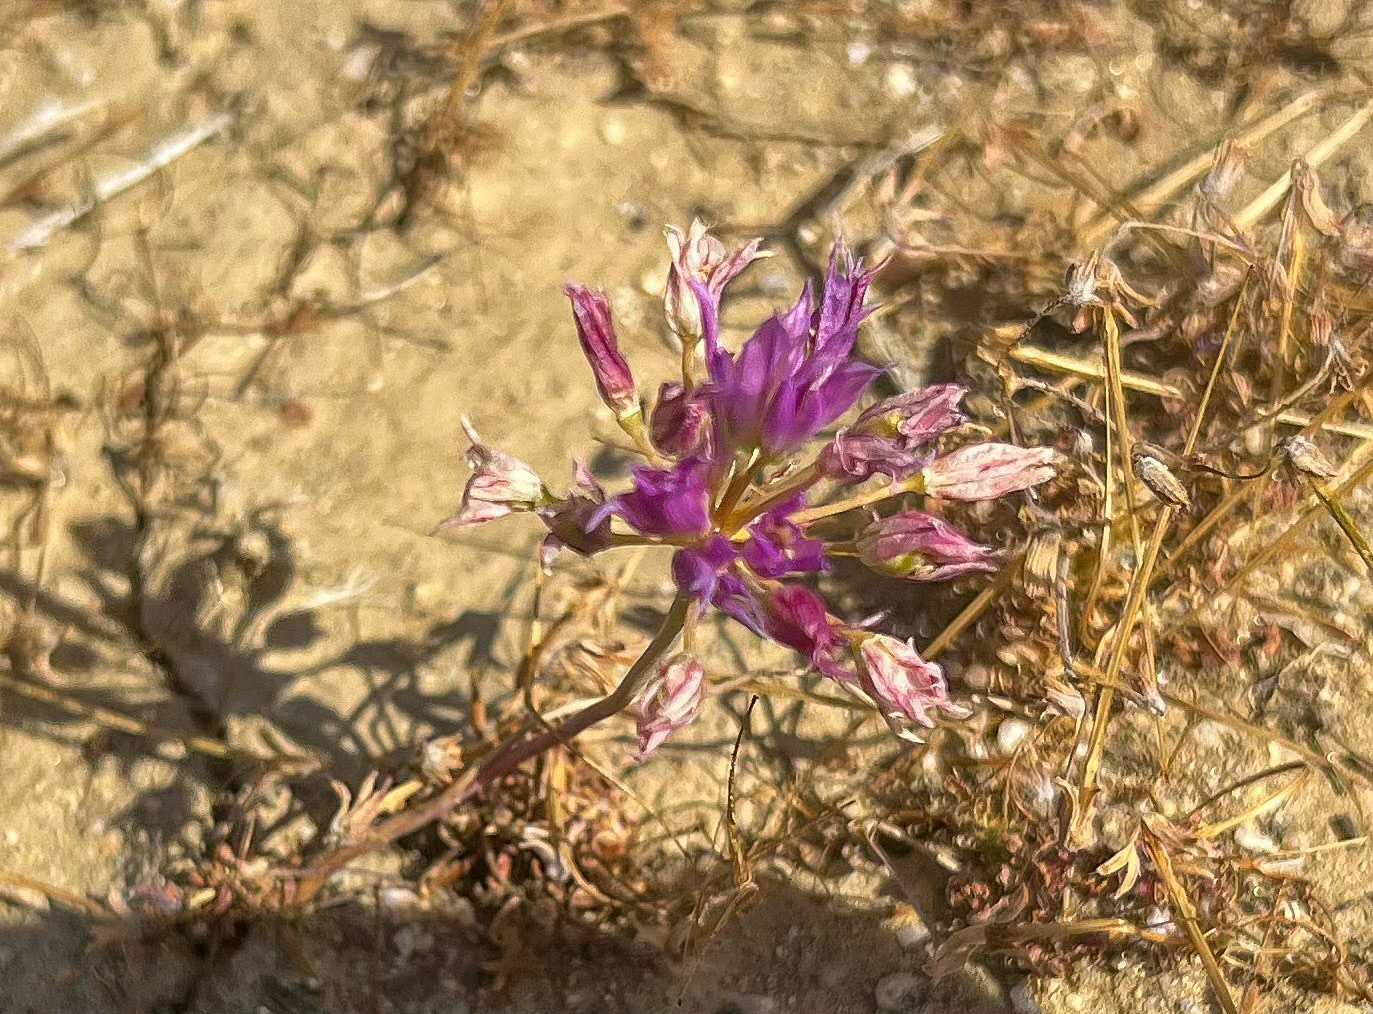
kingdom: Plantae
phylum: Tracheophyta
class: Liliopsida
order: Asparagales
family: Amaryllidaceae
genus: Allium
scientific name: Allium fimbriatum
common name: Fringed onion
